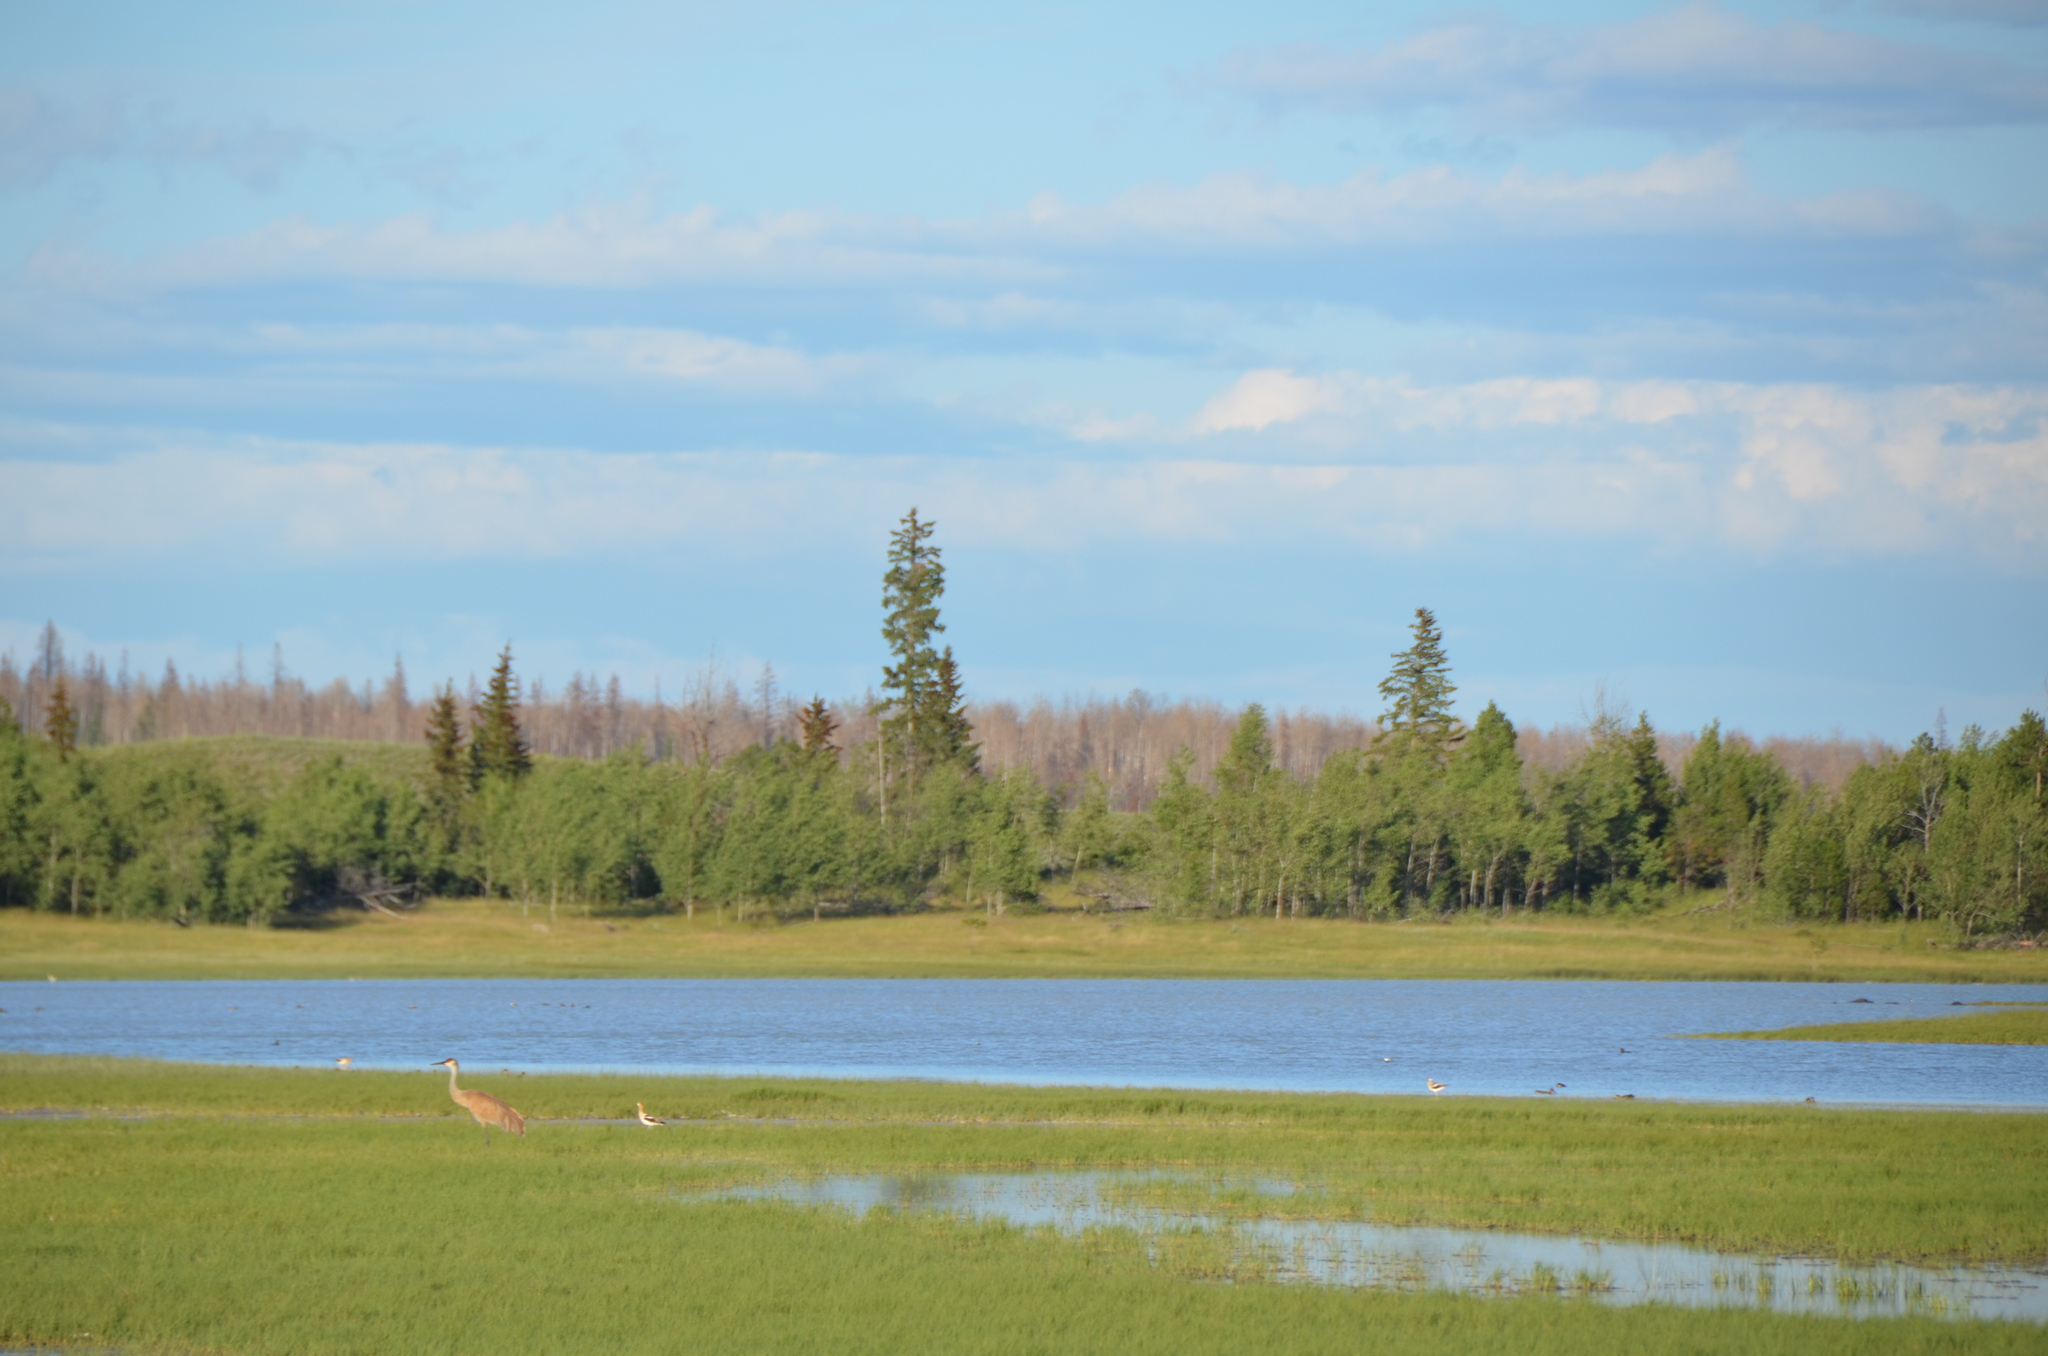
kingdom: Animalia
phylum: Chordata
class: Aves
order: Charadriiformes
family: Recurvirostridae
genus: Recurvirostra
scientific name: Recurvirostra americana
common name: American avocet
